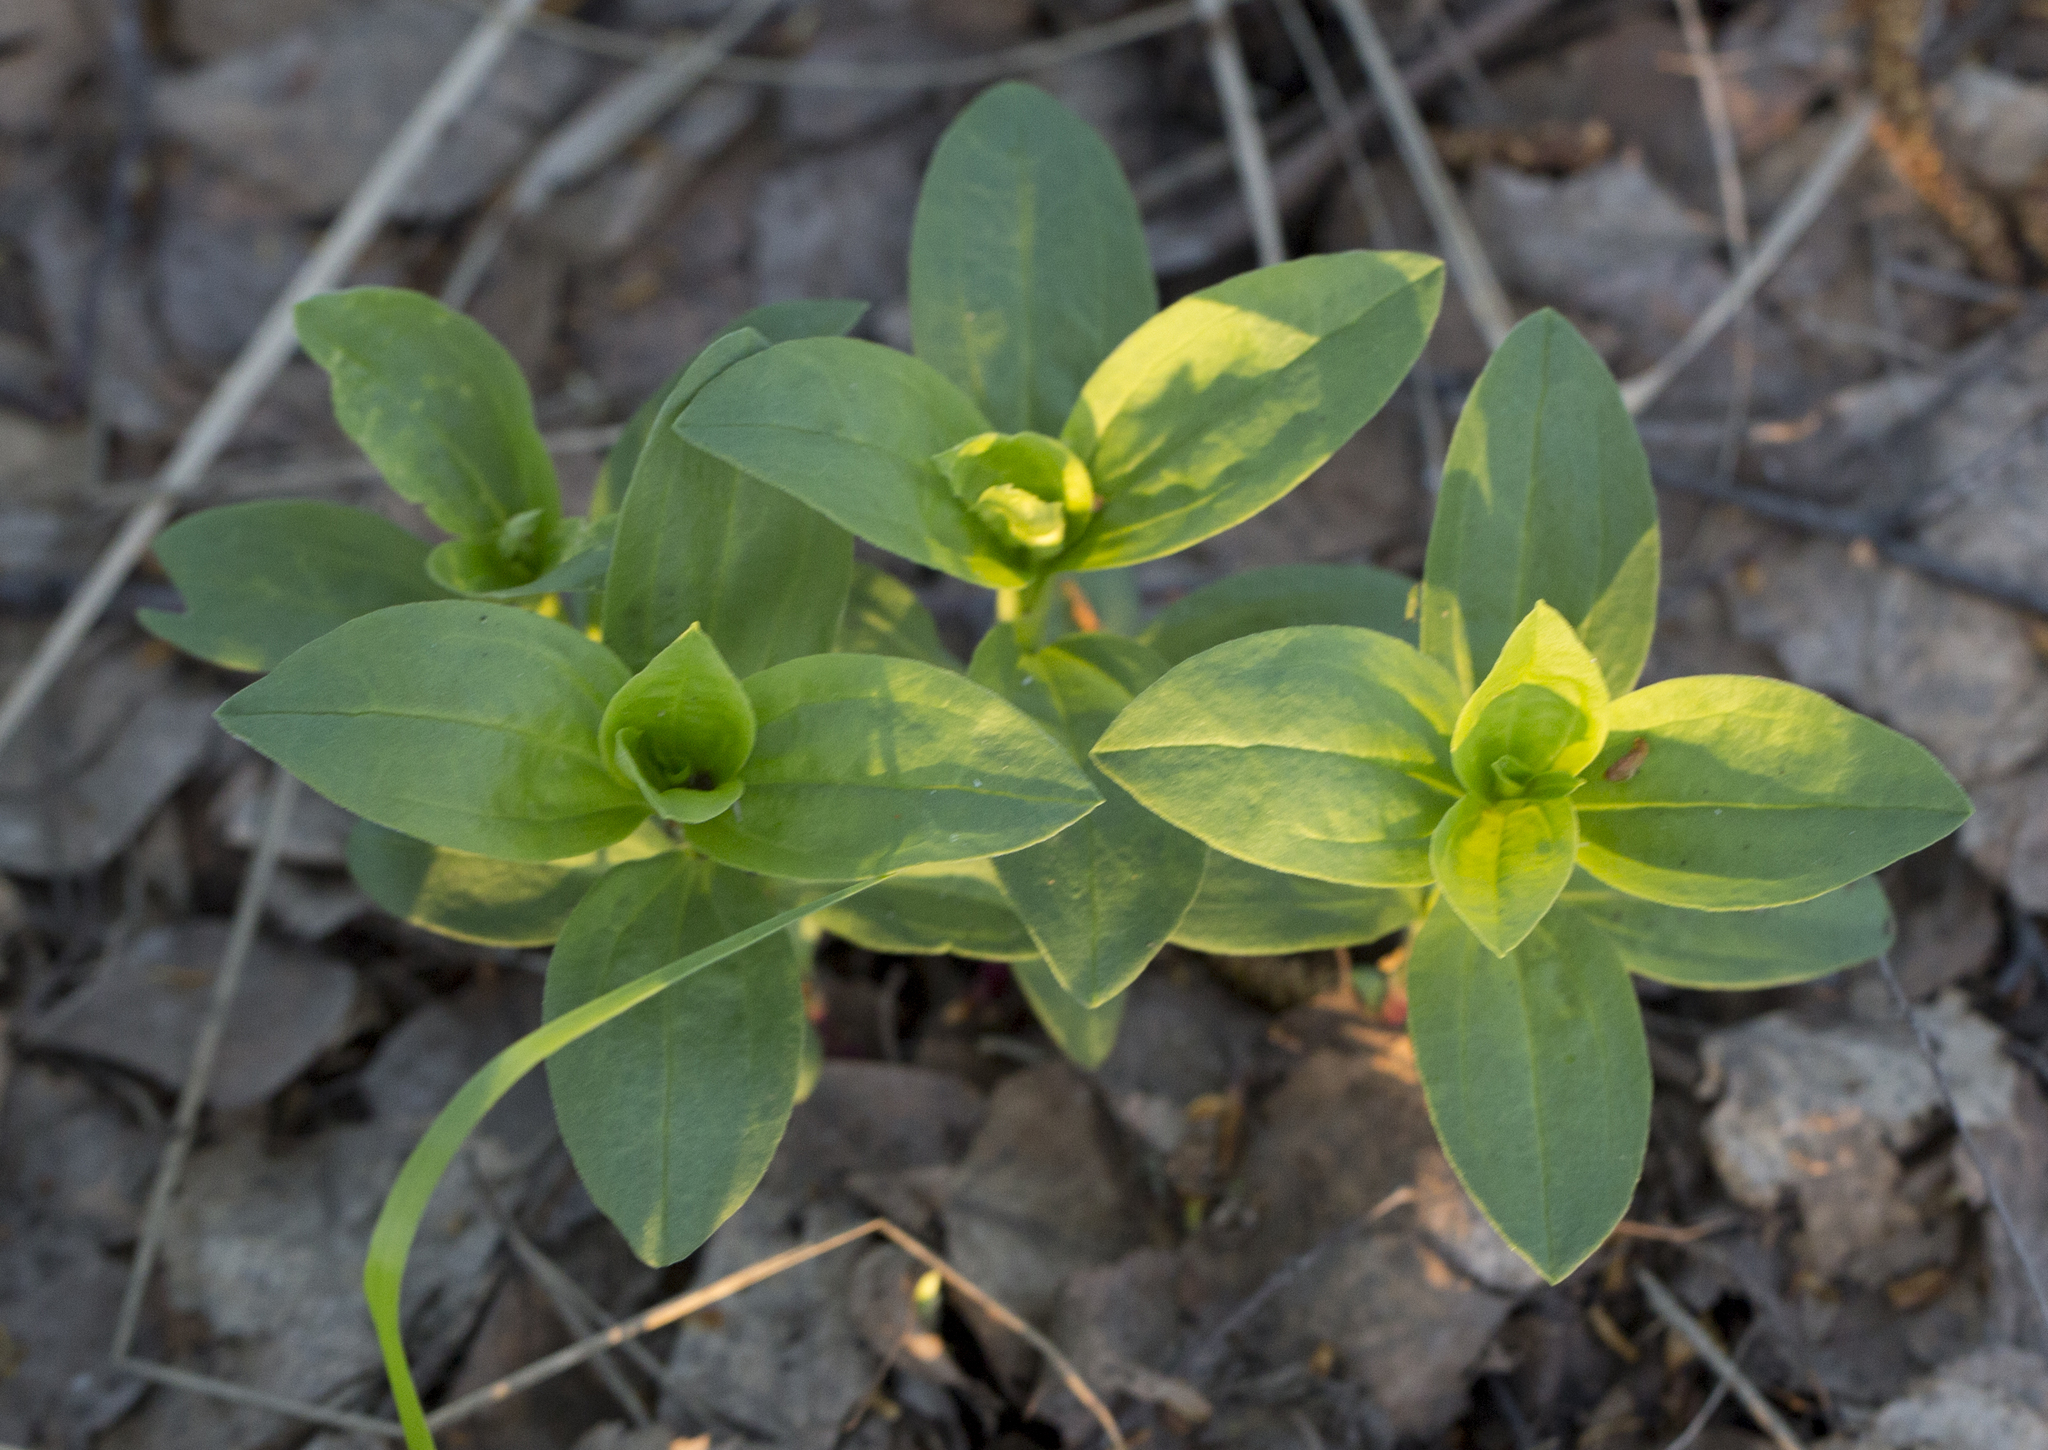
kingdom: Plantae
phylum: Tracheophyta
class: Magnoliopsida
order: Caryophyllales
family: Caryophyllaceae
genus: Saponaria
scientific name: Saponaria officinalis
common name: Soapwort
